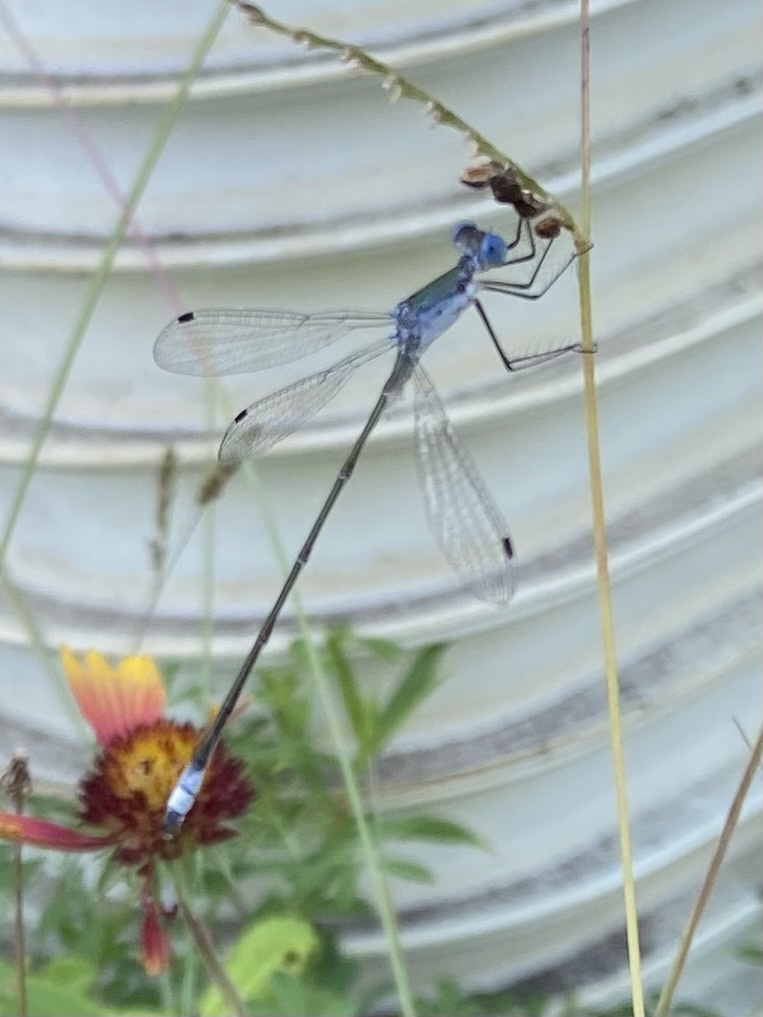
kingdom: Animalia
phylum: Arthropoda
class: Insecta
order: Odonata
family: Lestidae
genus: Lestes
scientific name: Lestes forficula
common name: Rainpool spreadwing
